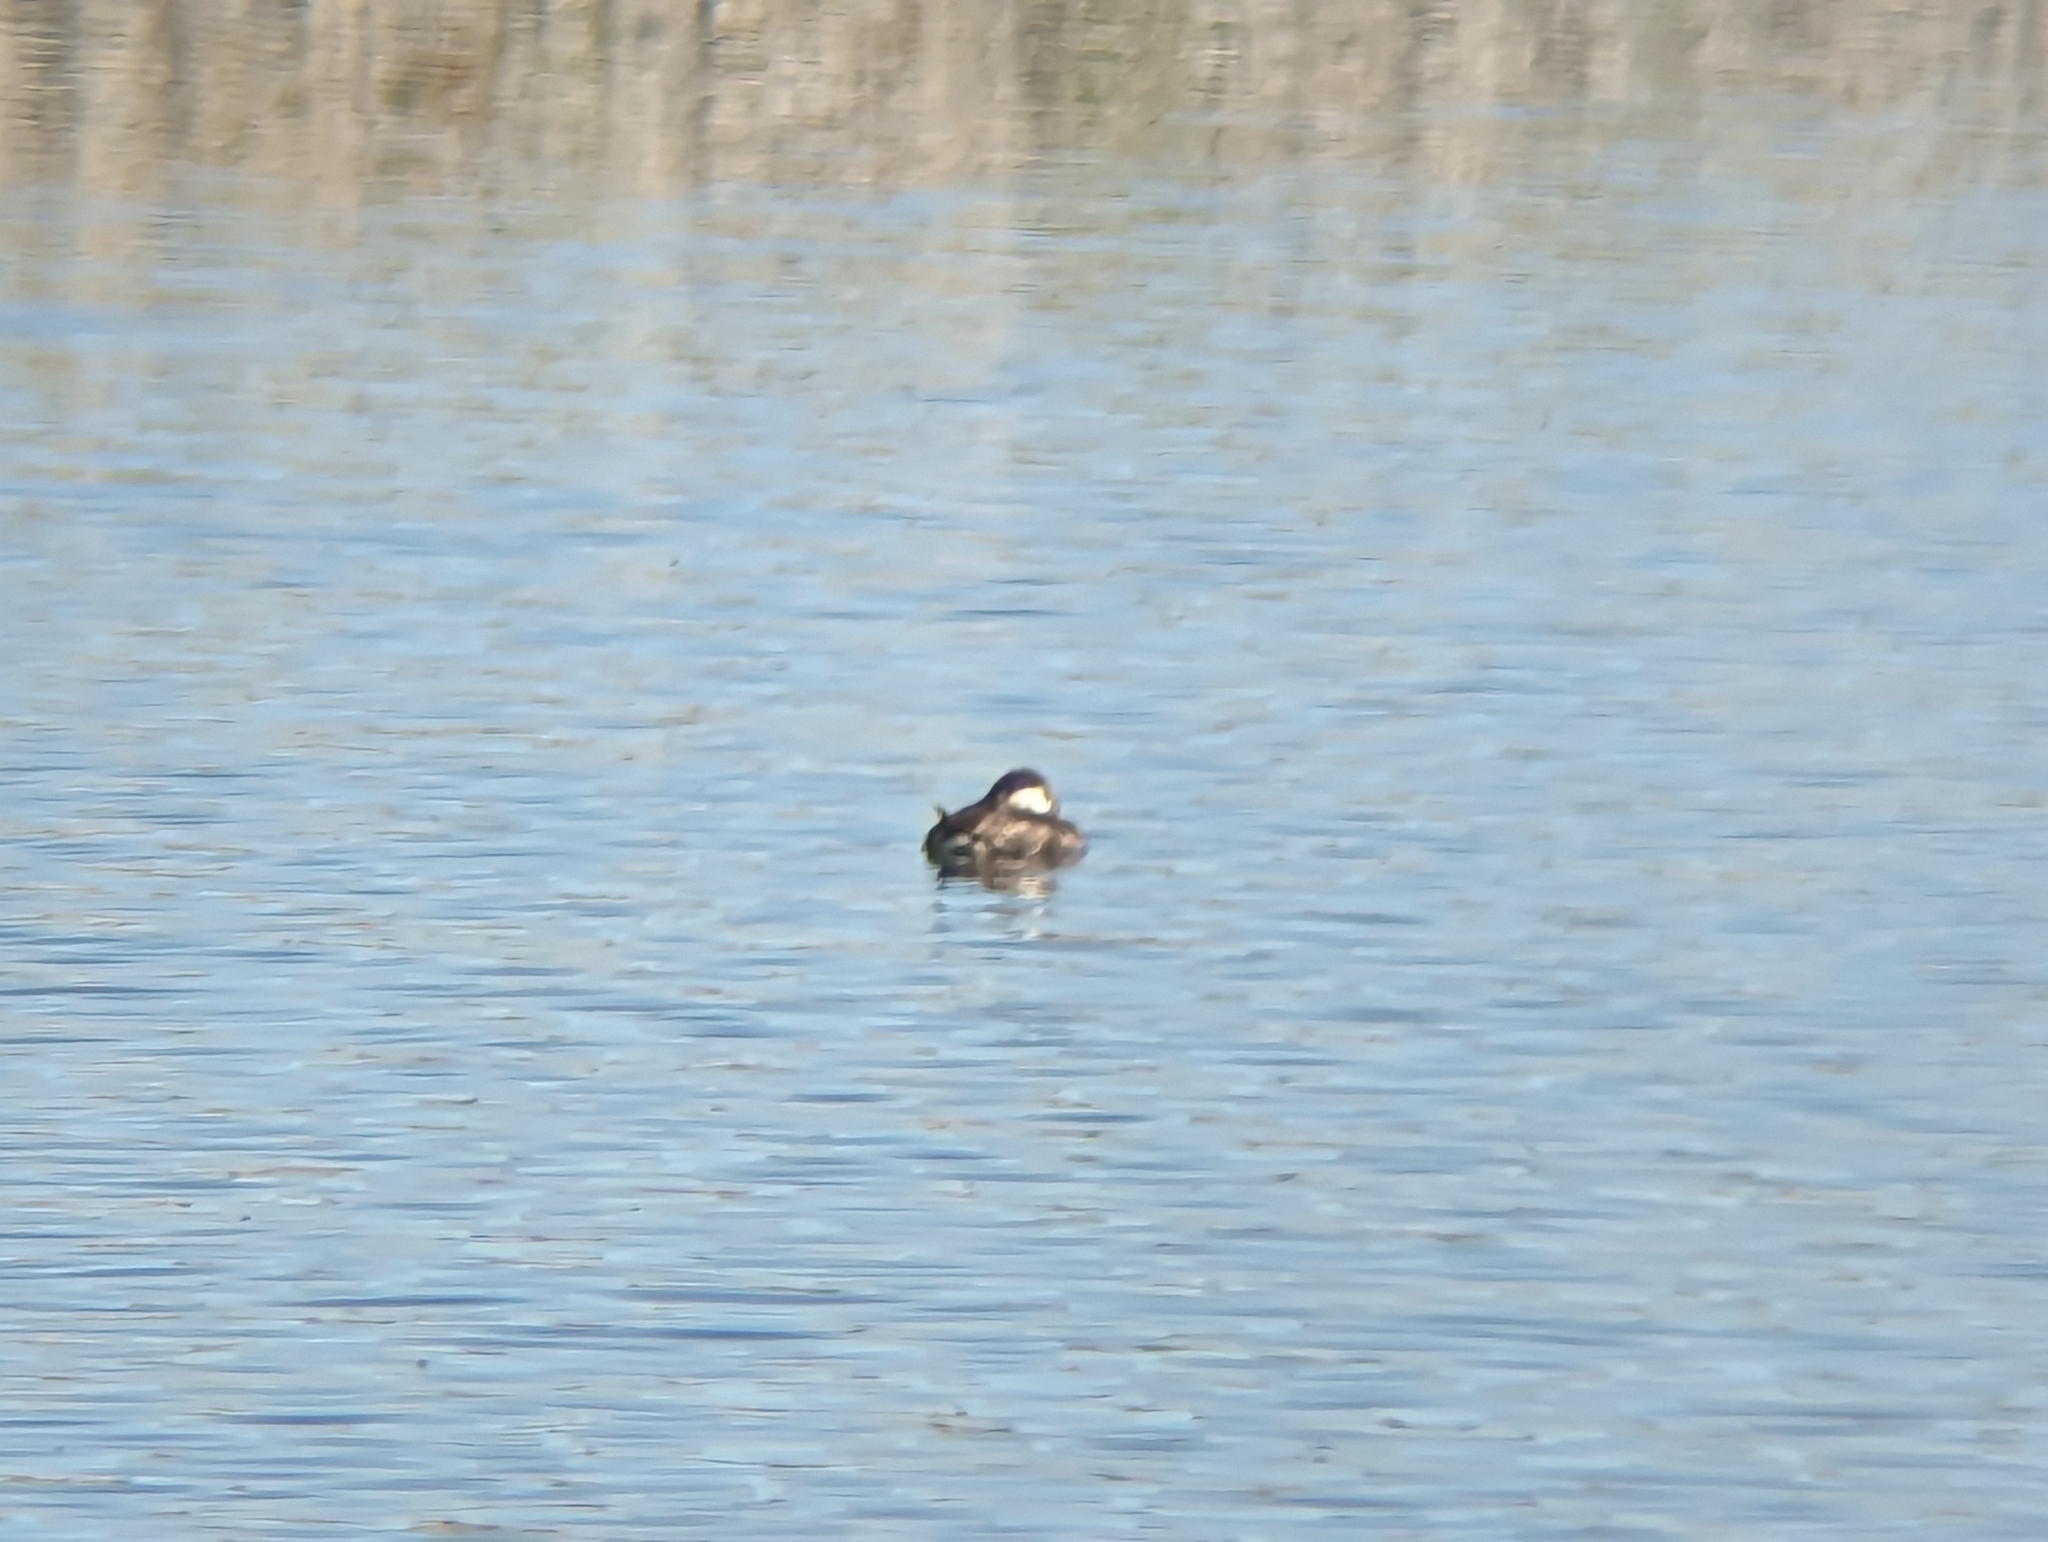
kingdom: Animalia
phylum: Chordata
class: Aves
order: Anseriformes
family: Anatidae
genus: Oxyura
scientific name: Oxyura jamaicensis
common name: Ruddy duck
